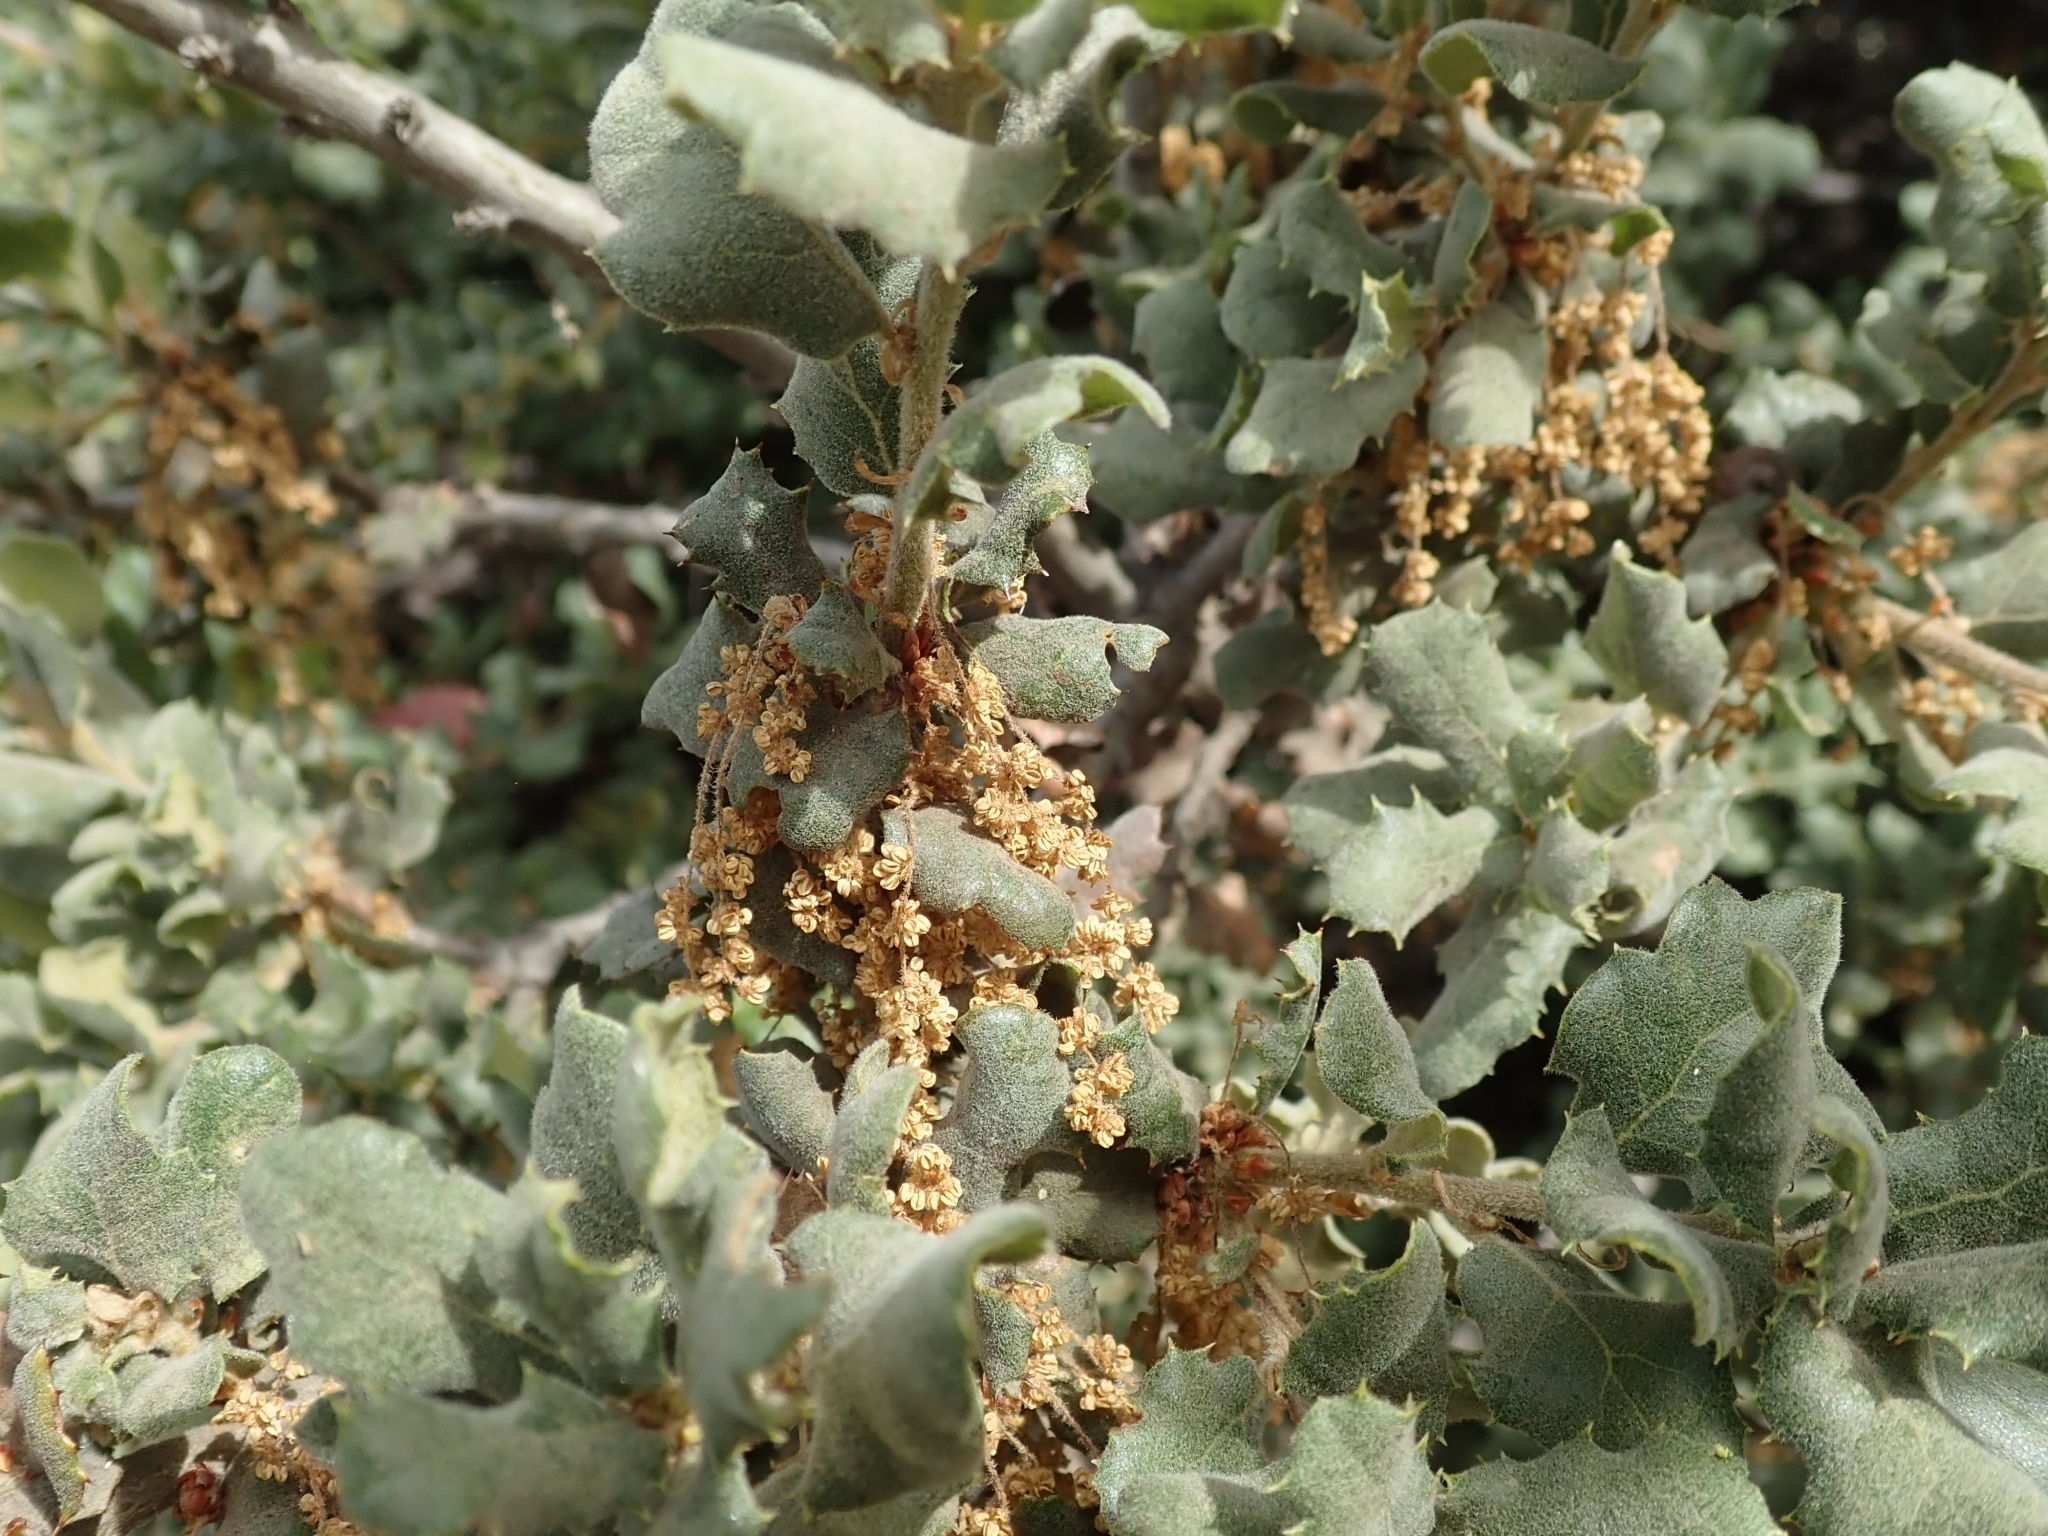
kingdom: Plantae
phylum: Tracheophyta
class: Magnoliopsida
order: Fagales
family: Fagaceae
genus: Quercus
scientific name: Quercus durata
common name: Leather oak
